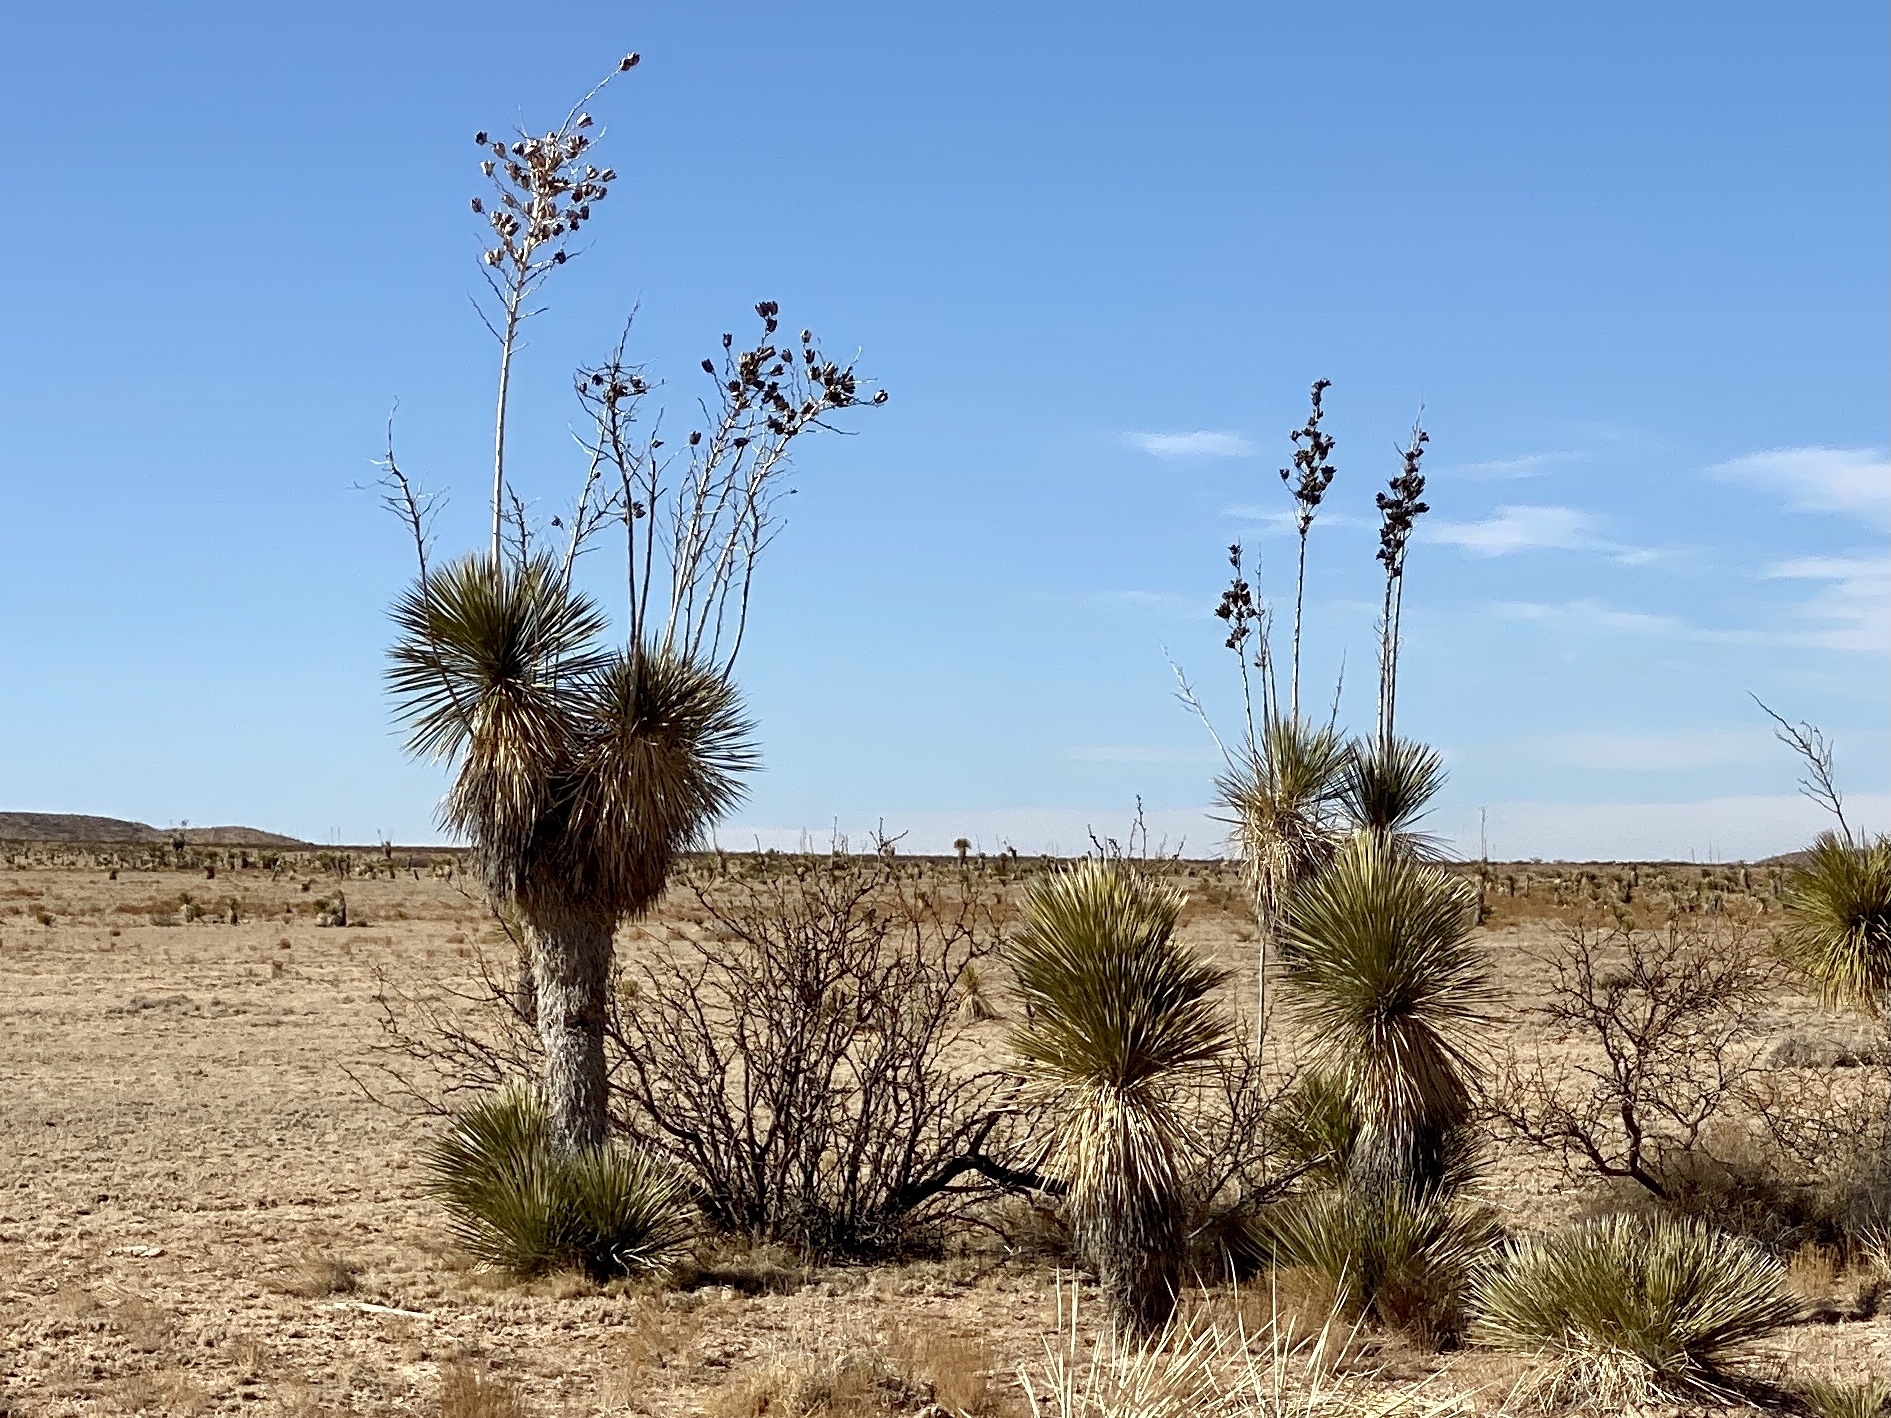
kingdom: Plantae
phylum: Tracheophyta
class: Liliopsida
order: Asparagales
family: Asparagaceae
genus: Yucca
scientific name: Yucca elata
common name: Palmella
